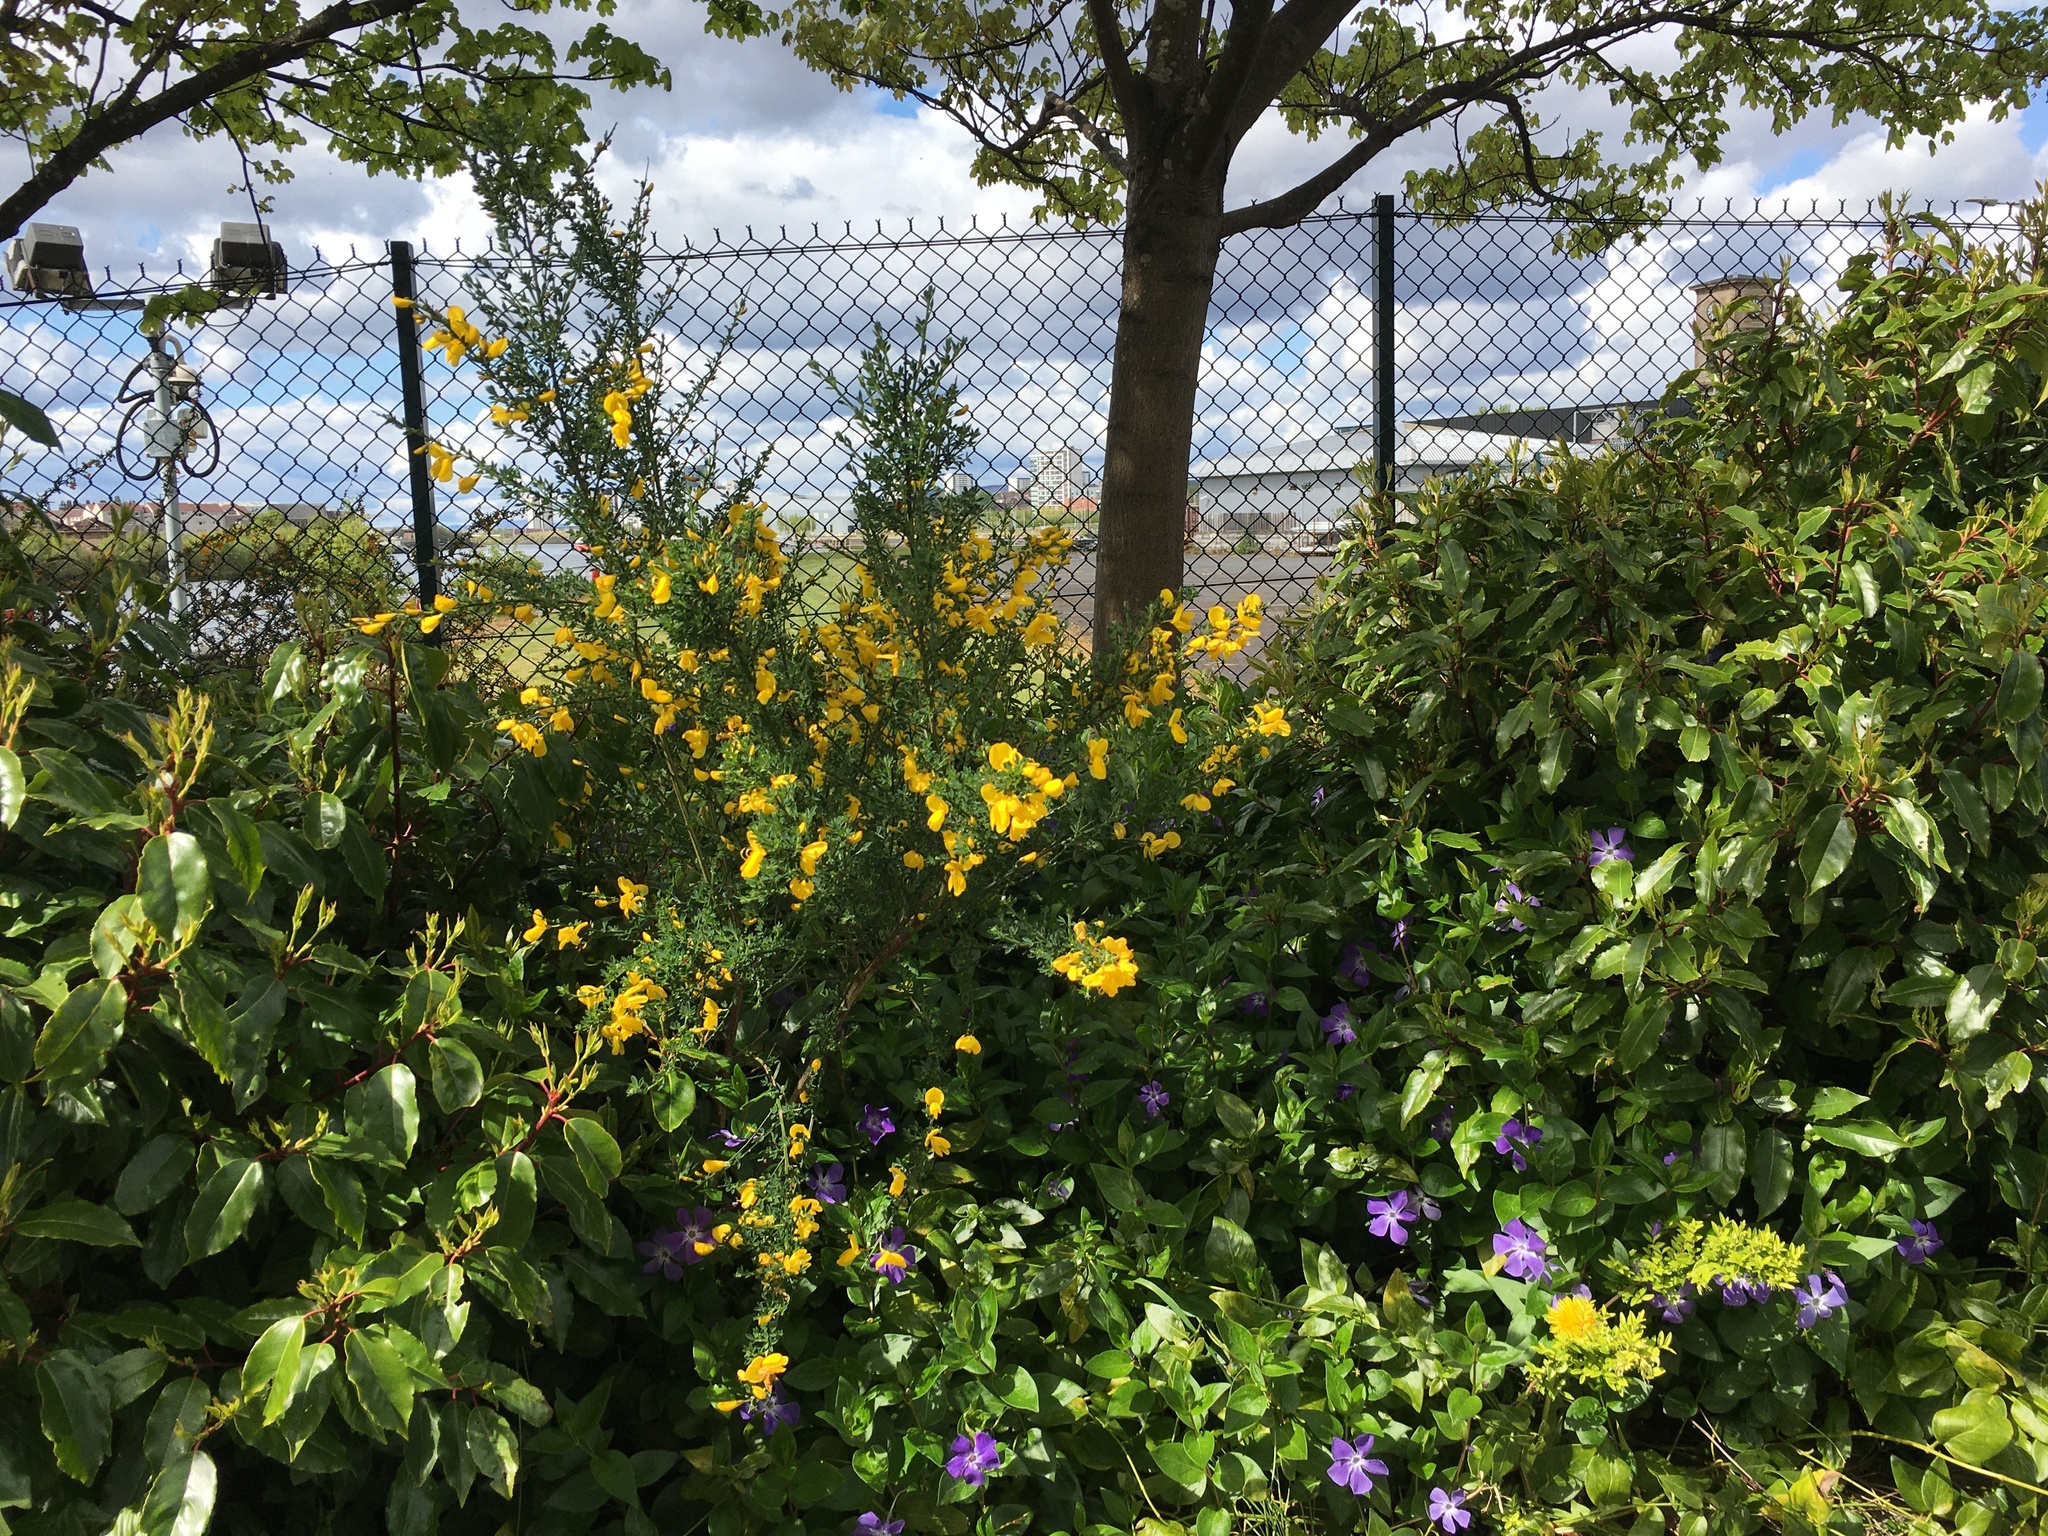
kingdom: Plantae
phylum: Tracheophyta
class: Magnoliopsida
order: Fabales
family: Fabaceae
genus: Cytisus
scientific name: Cytisus scoparius
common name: Scotch broom
